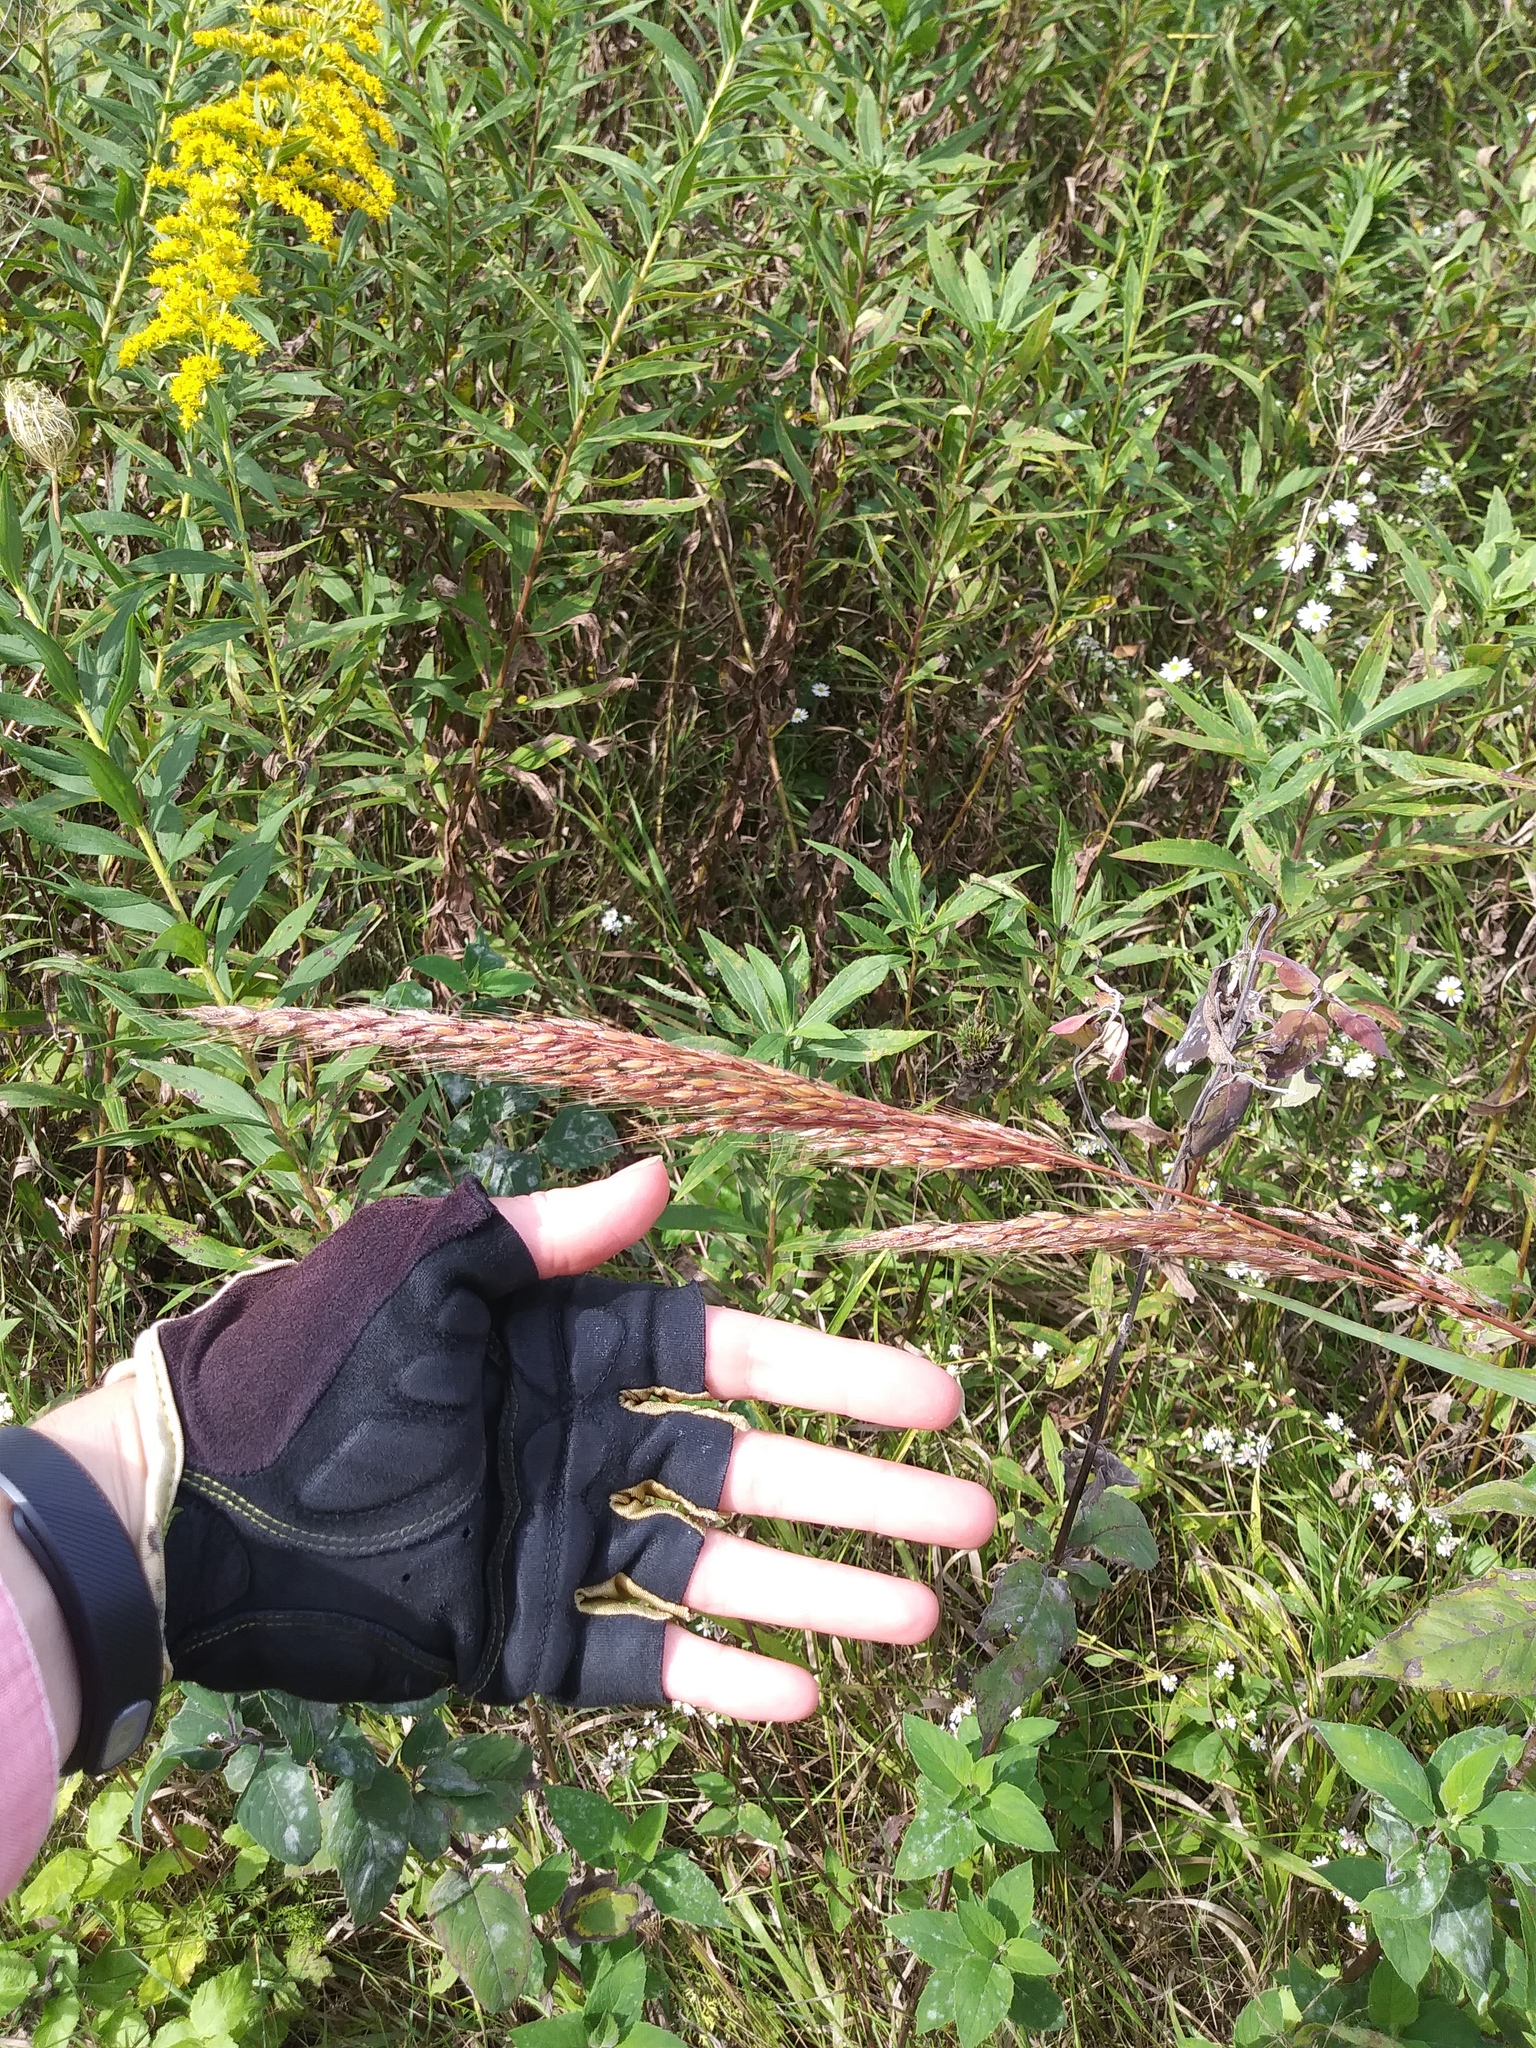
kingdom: Plantae
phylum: Tracheophyta
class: Liliopsida
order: Poales
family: Poaceae
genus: Sorghastrum
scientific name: Sorghastrum nutans
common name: Indian grass
